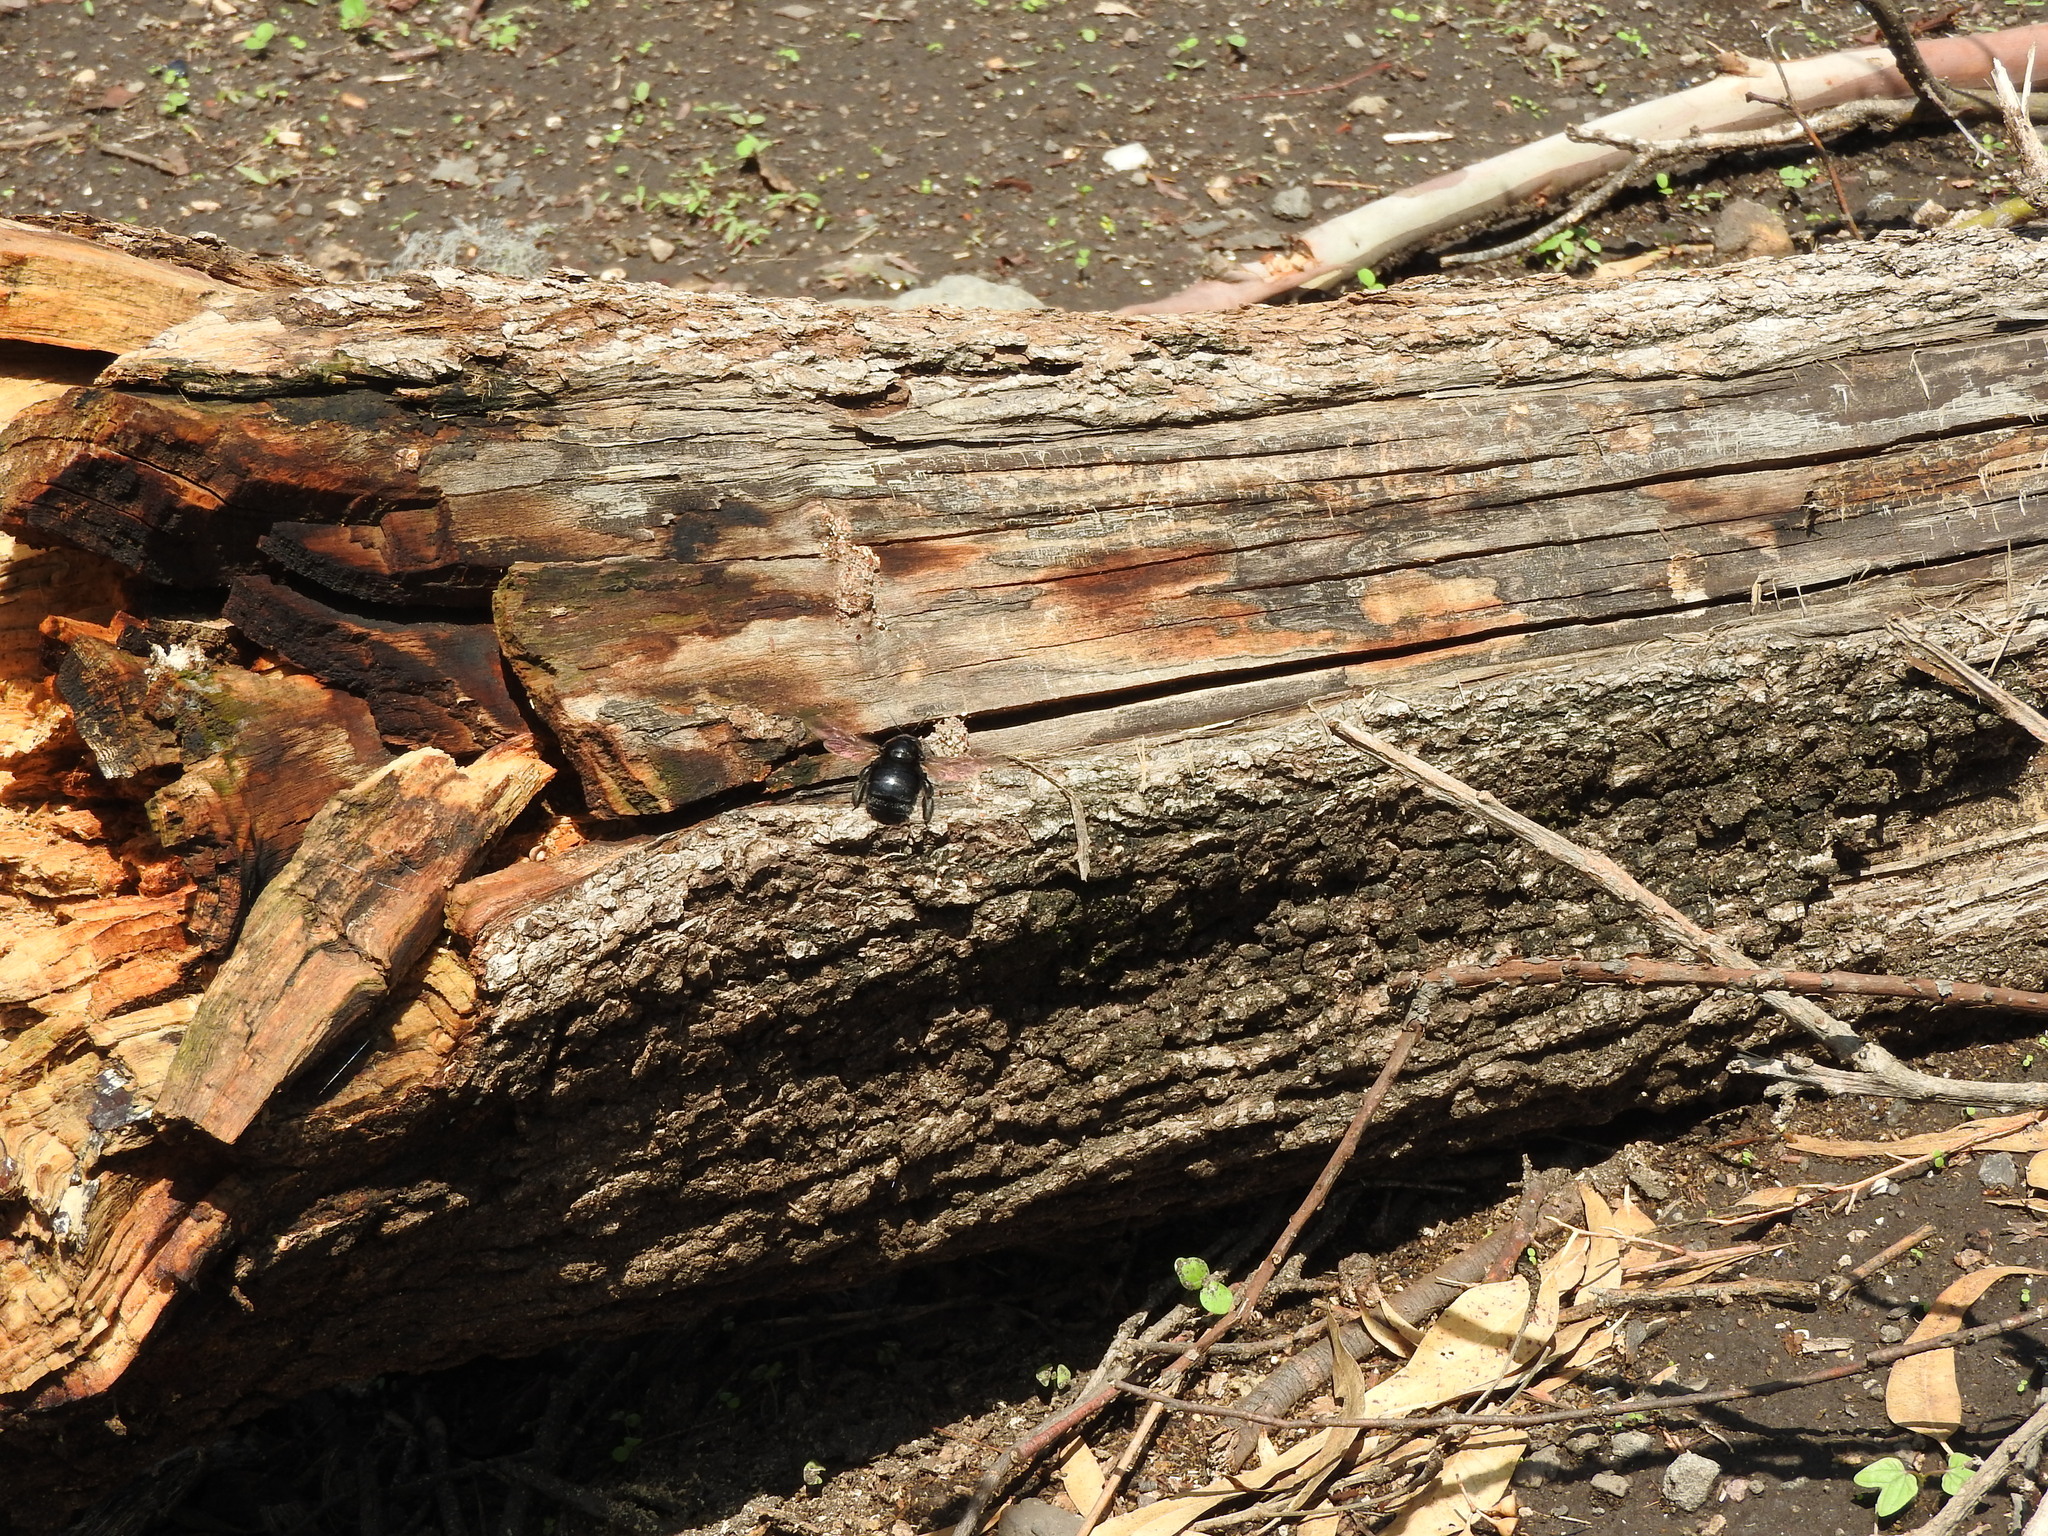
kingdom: Animalia
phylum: Arthropoda
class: Insecta
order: Hymenoptera
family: Apidae
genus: Xylocopa
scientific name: Xylocopa sonorina
